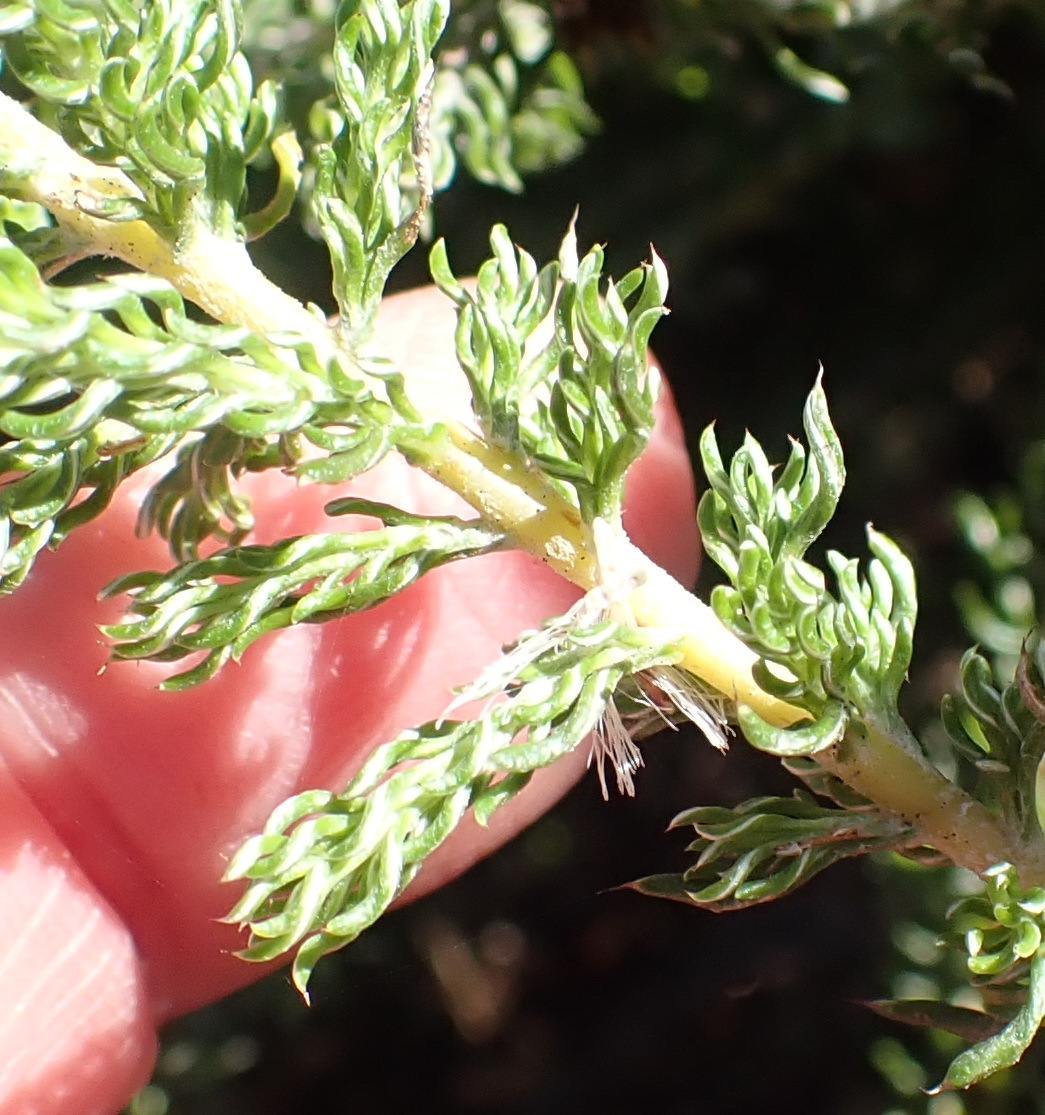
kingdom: Plantae
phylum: Tracheophyta
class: Magnoliopsida
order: Asterales
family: Asteraceae
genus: Disparago
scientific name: Disparago anomala
